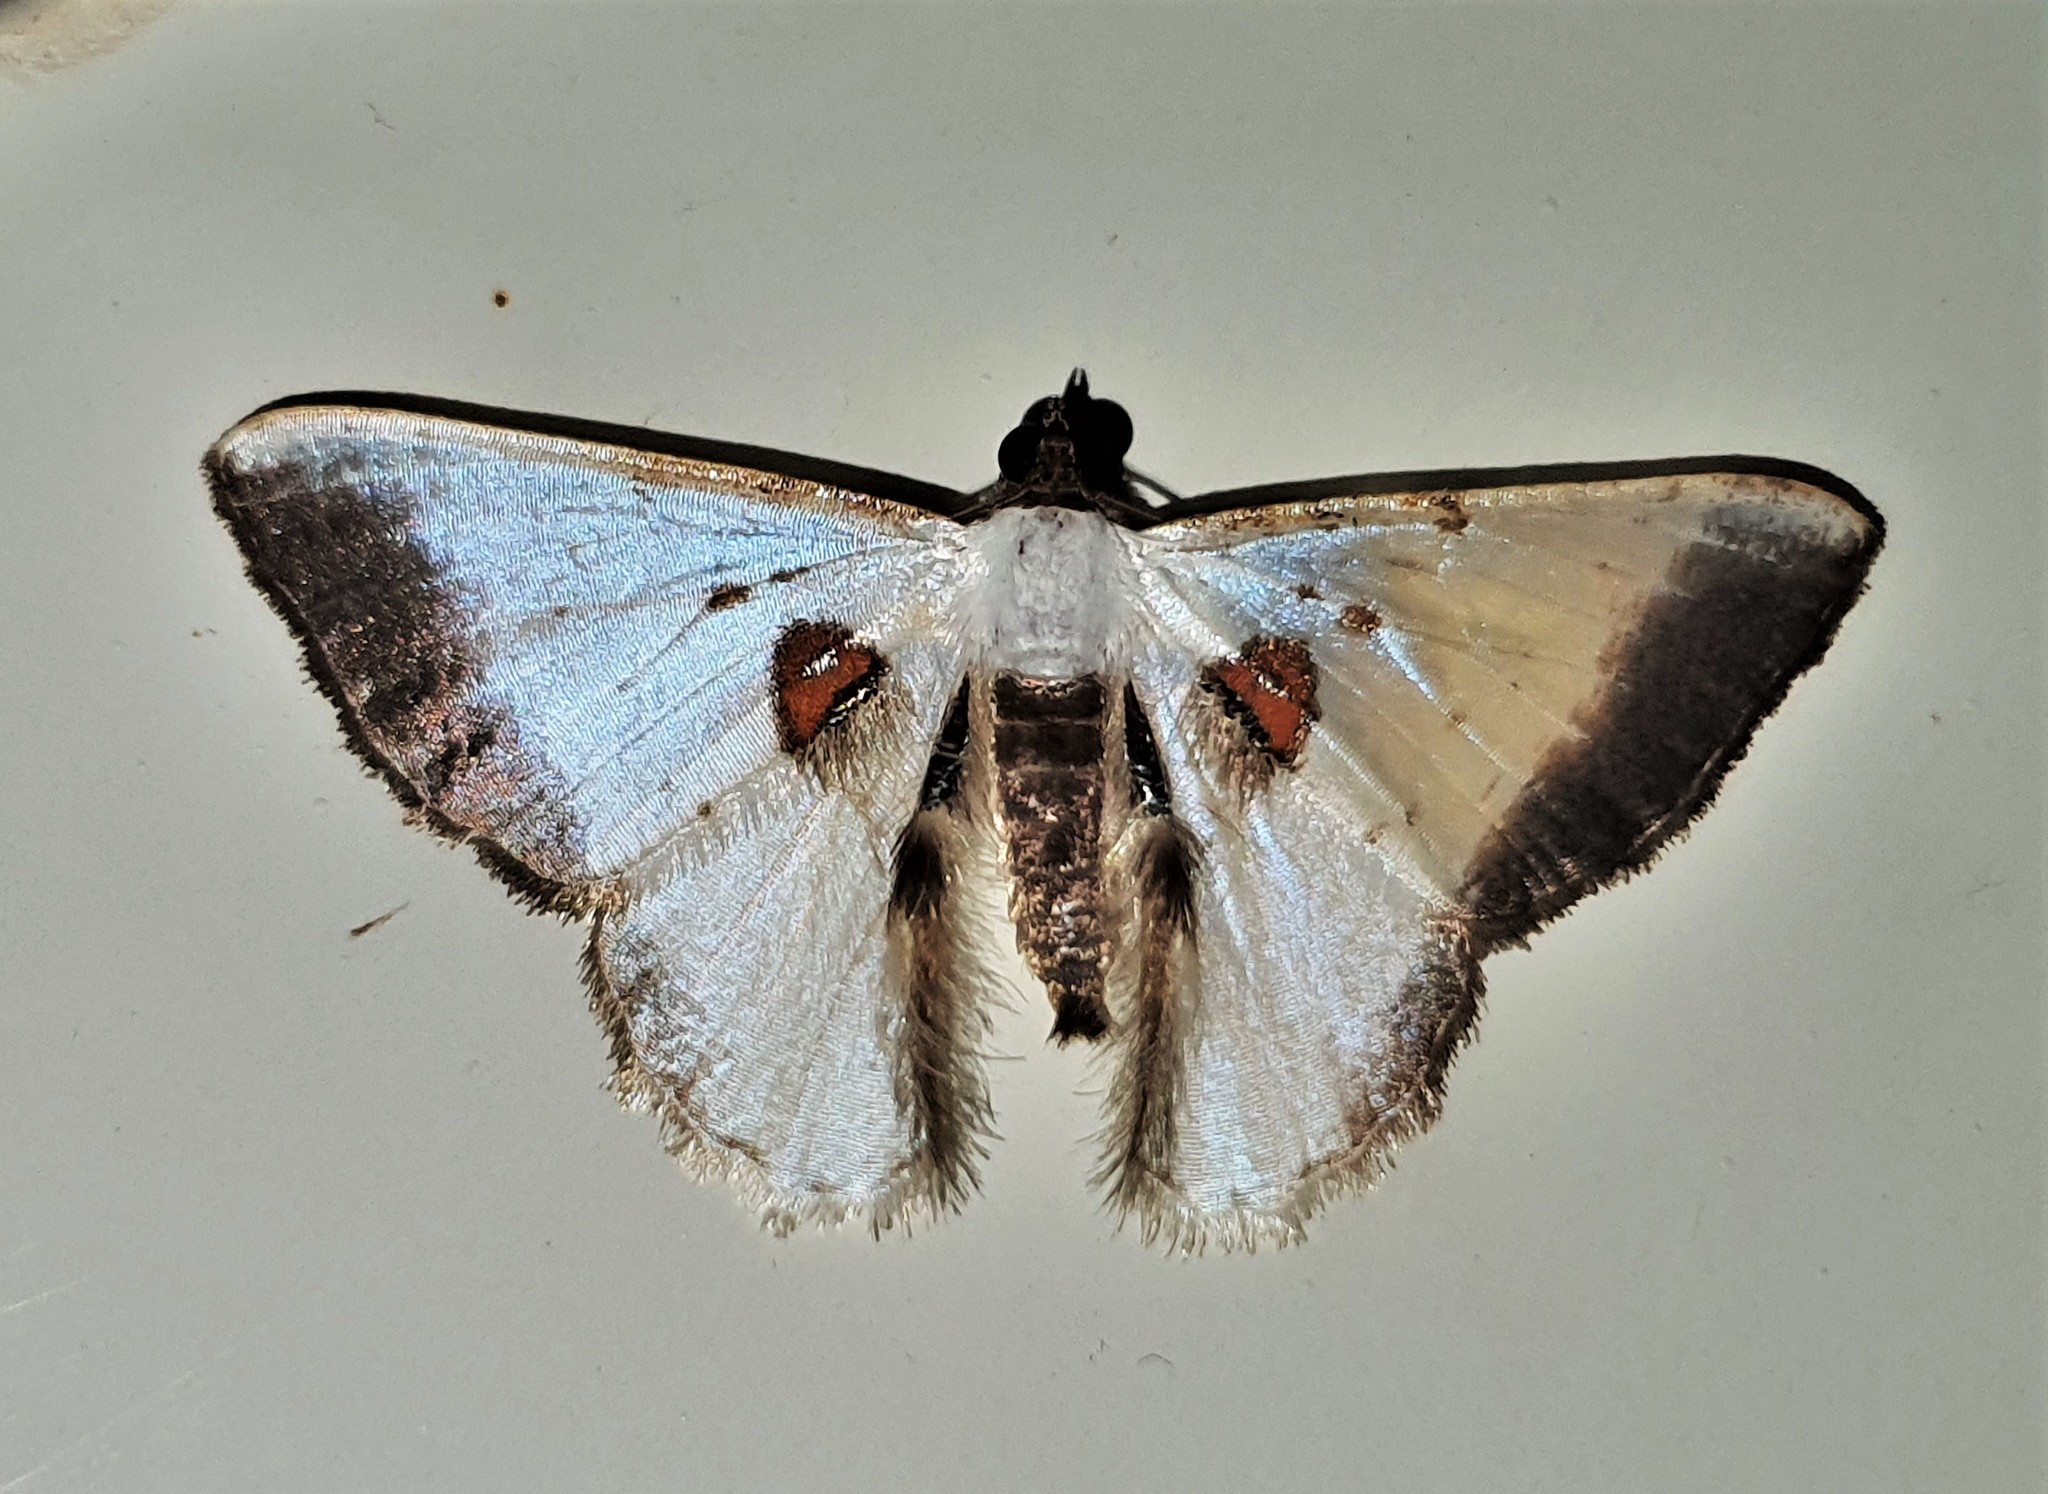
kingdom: Animalia
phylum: Arthropoda
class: Insecta
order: Lepidoptera
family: Geometridae
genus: Berberodes
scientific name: Berberodes rufimacula
